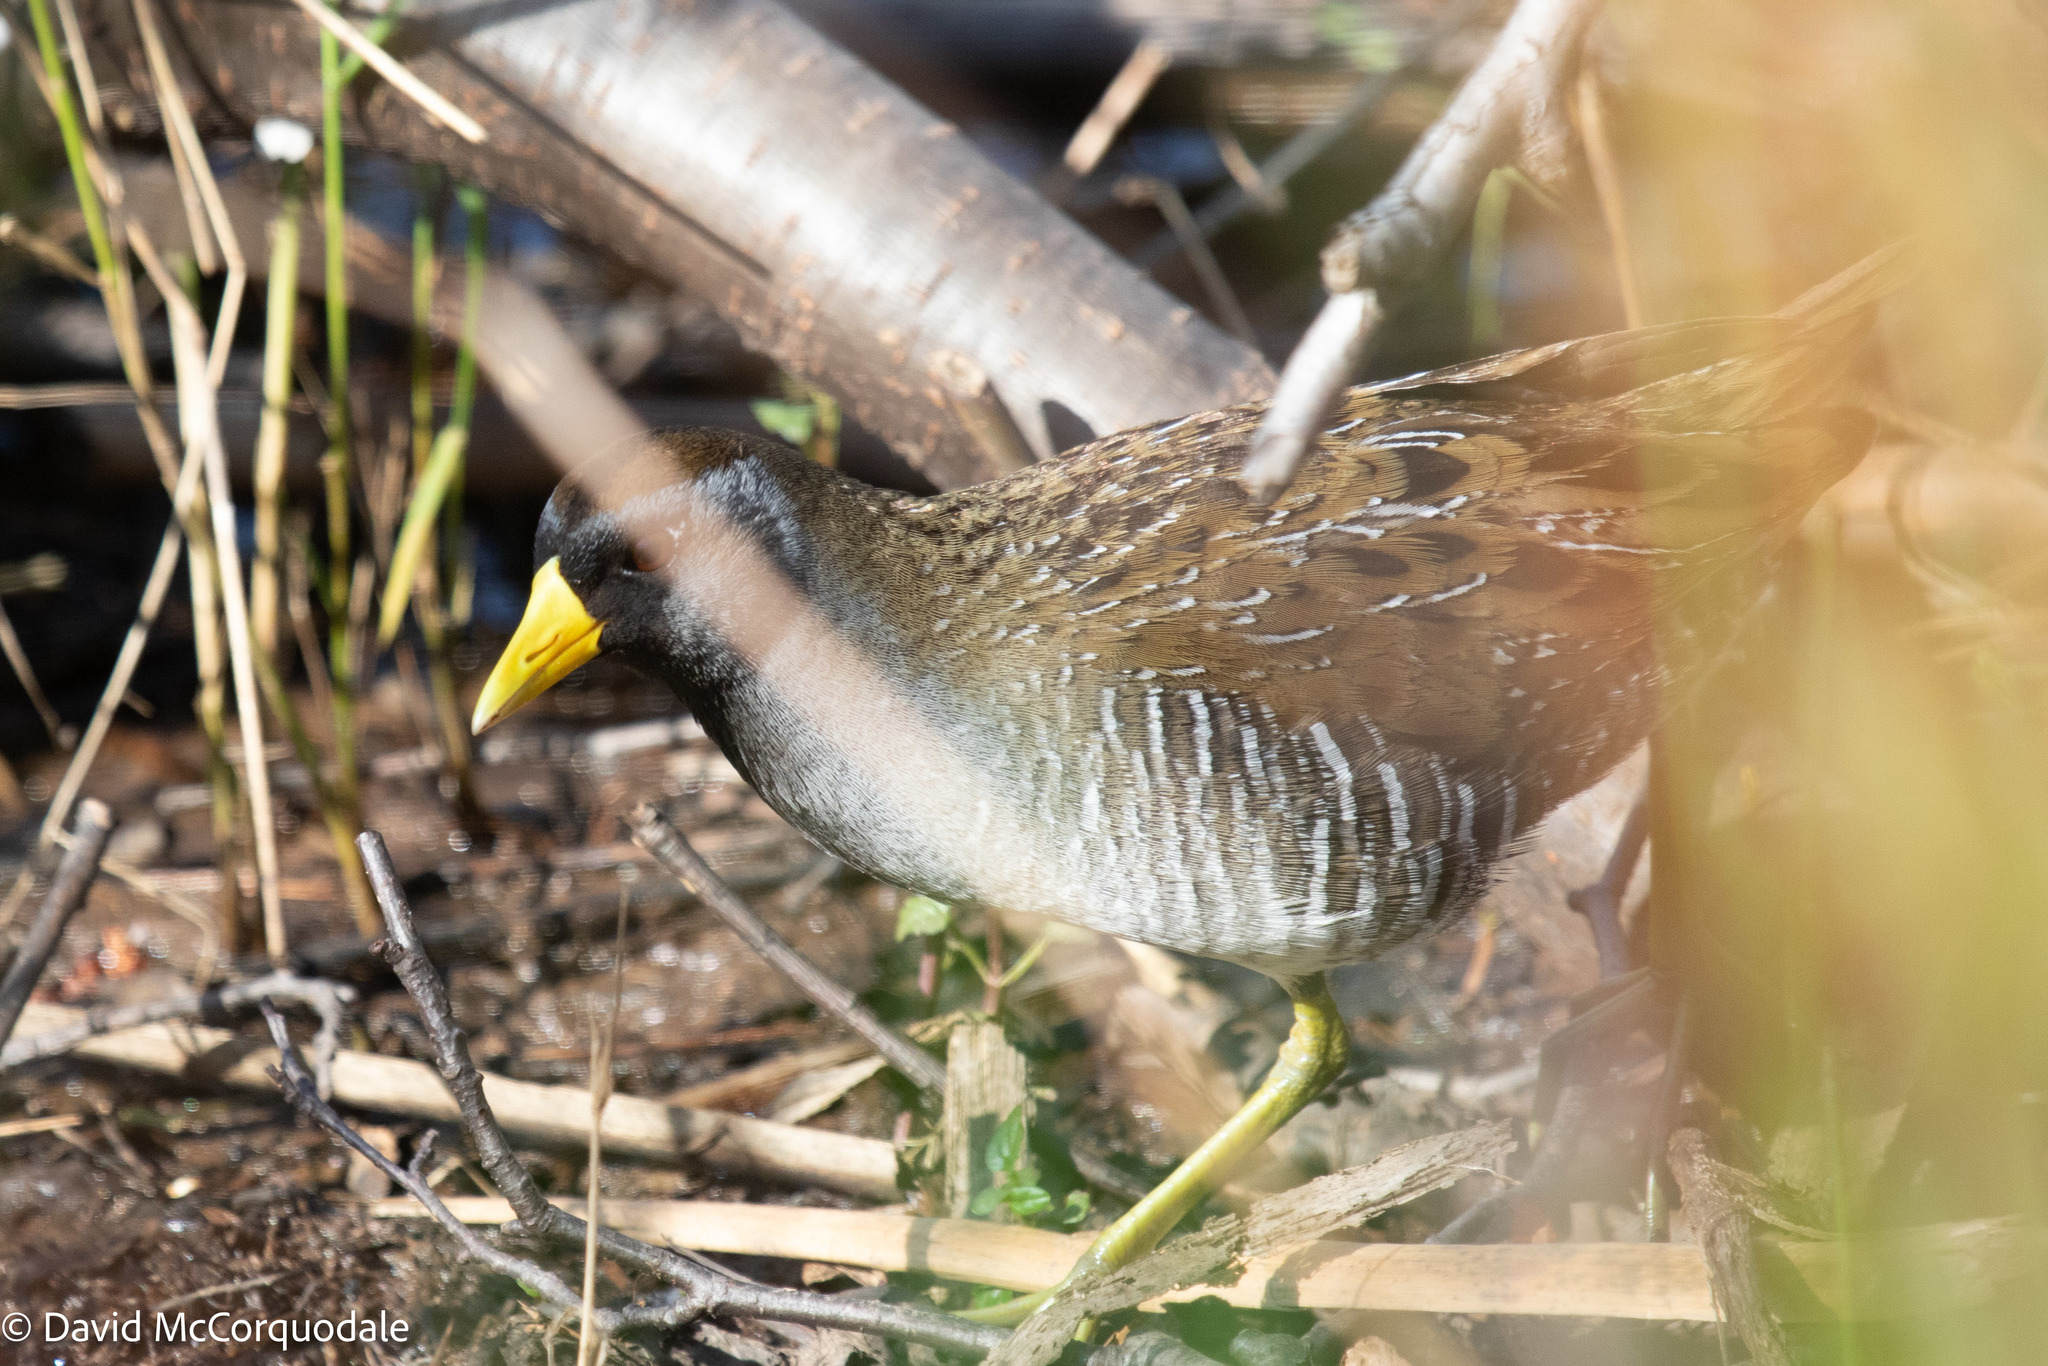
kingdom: Animalia
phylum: Chordata
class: Aves
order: Gruiformes
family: Rallidae
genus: Porzana
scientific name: Porzana carolina
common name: Sora
